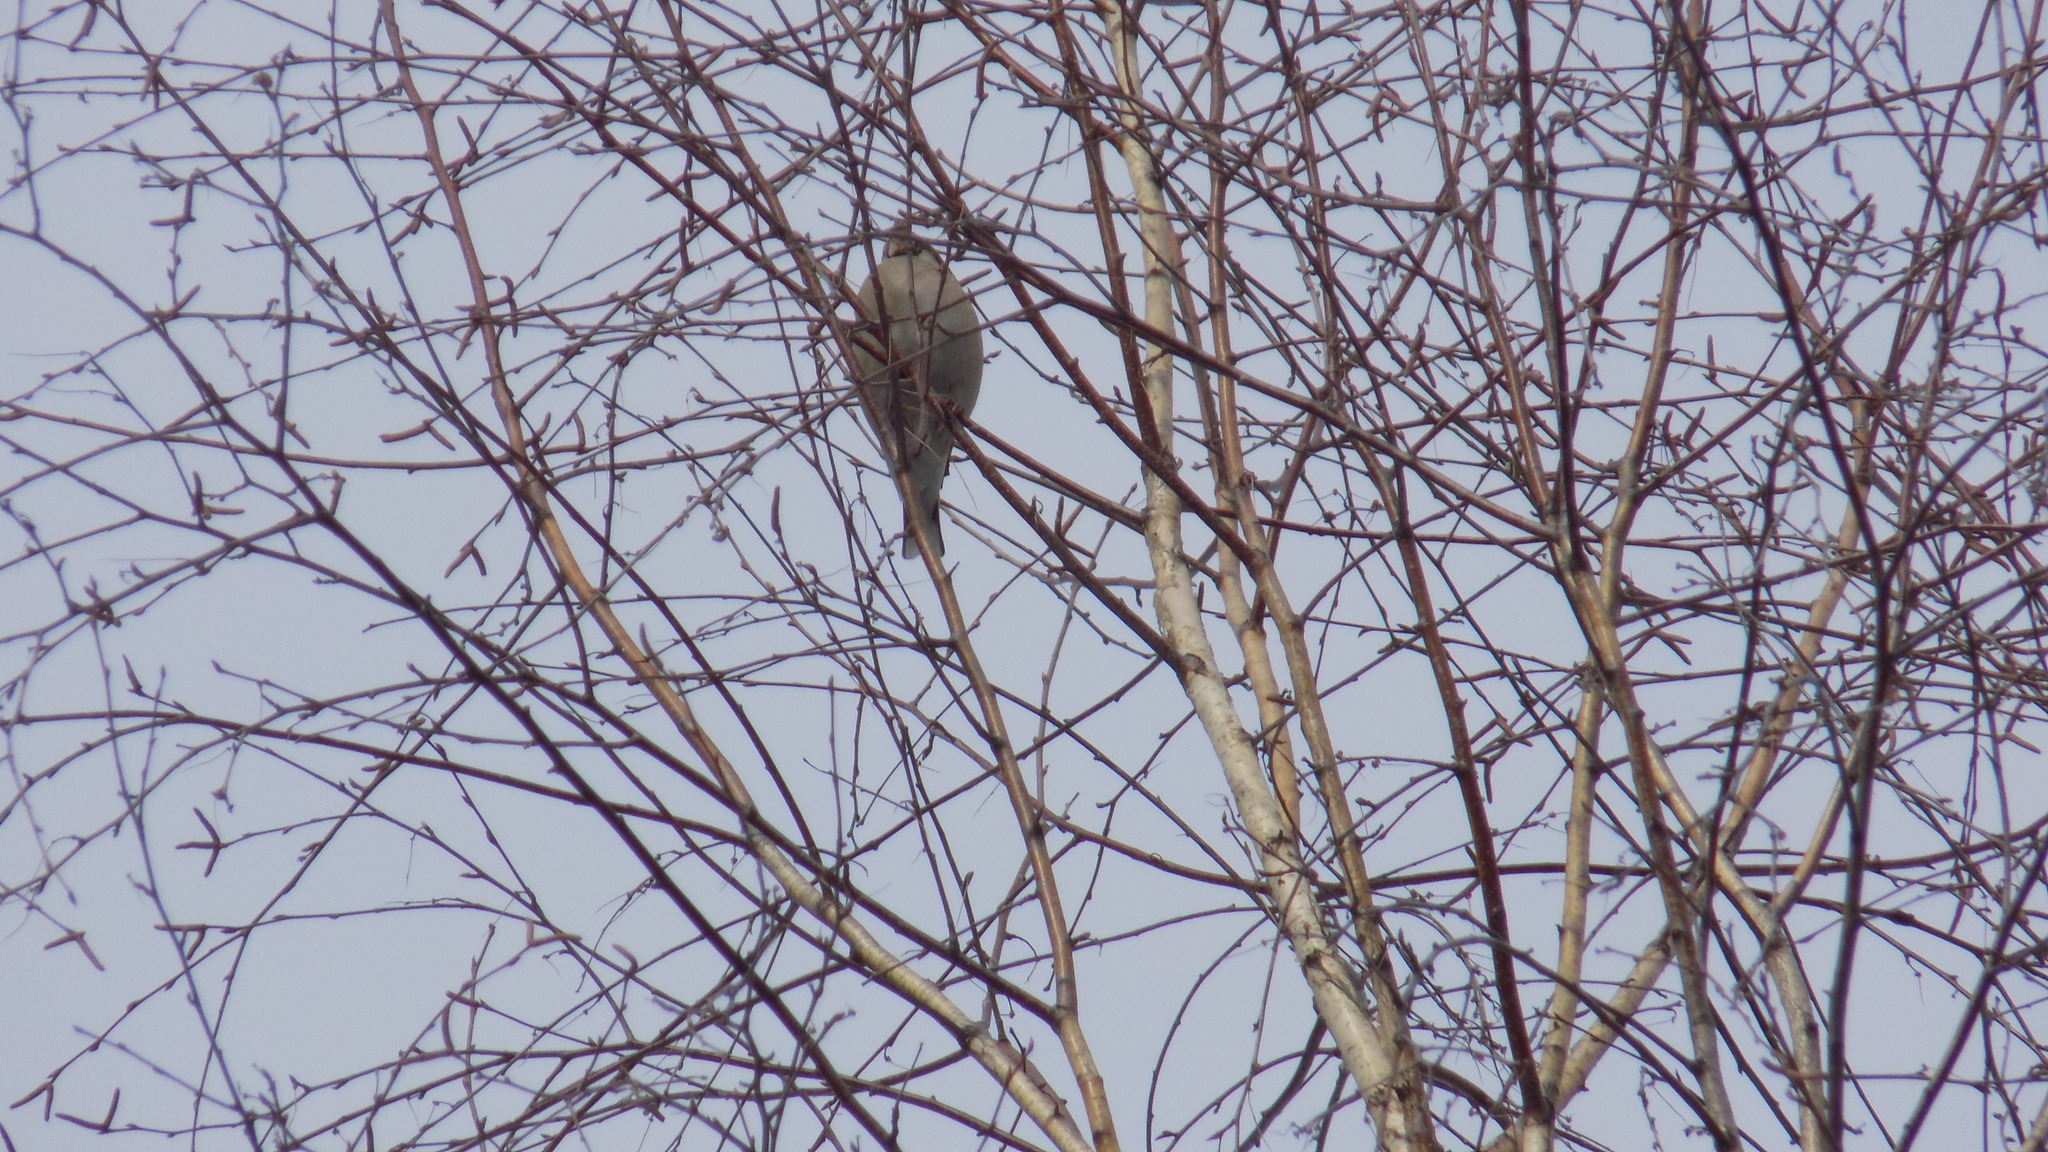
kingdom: Animalia
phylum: Chordata
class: Aves
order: Passeriformes
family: Fringillidae
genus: Coccothraustes
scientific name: Coccothraustes coccothraustes
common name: Hawfinch
